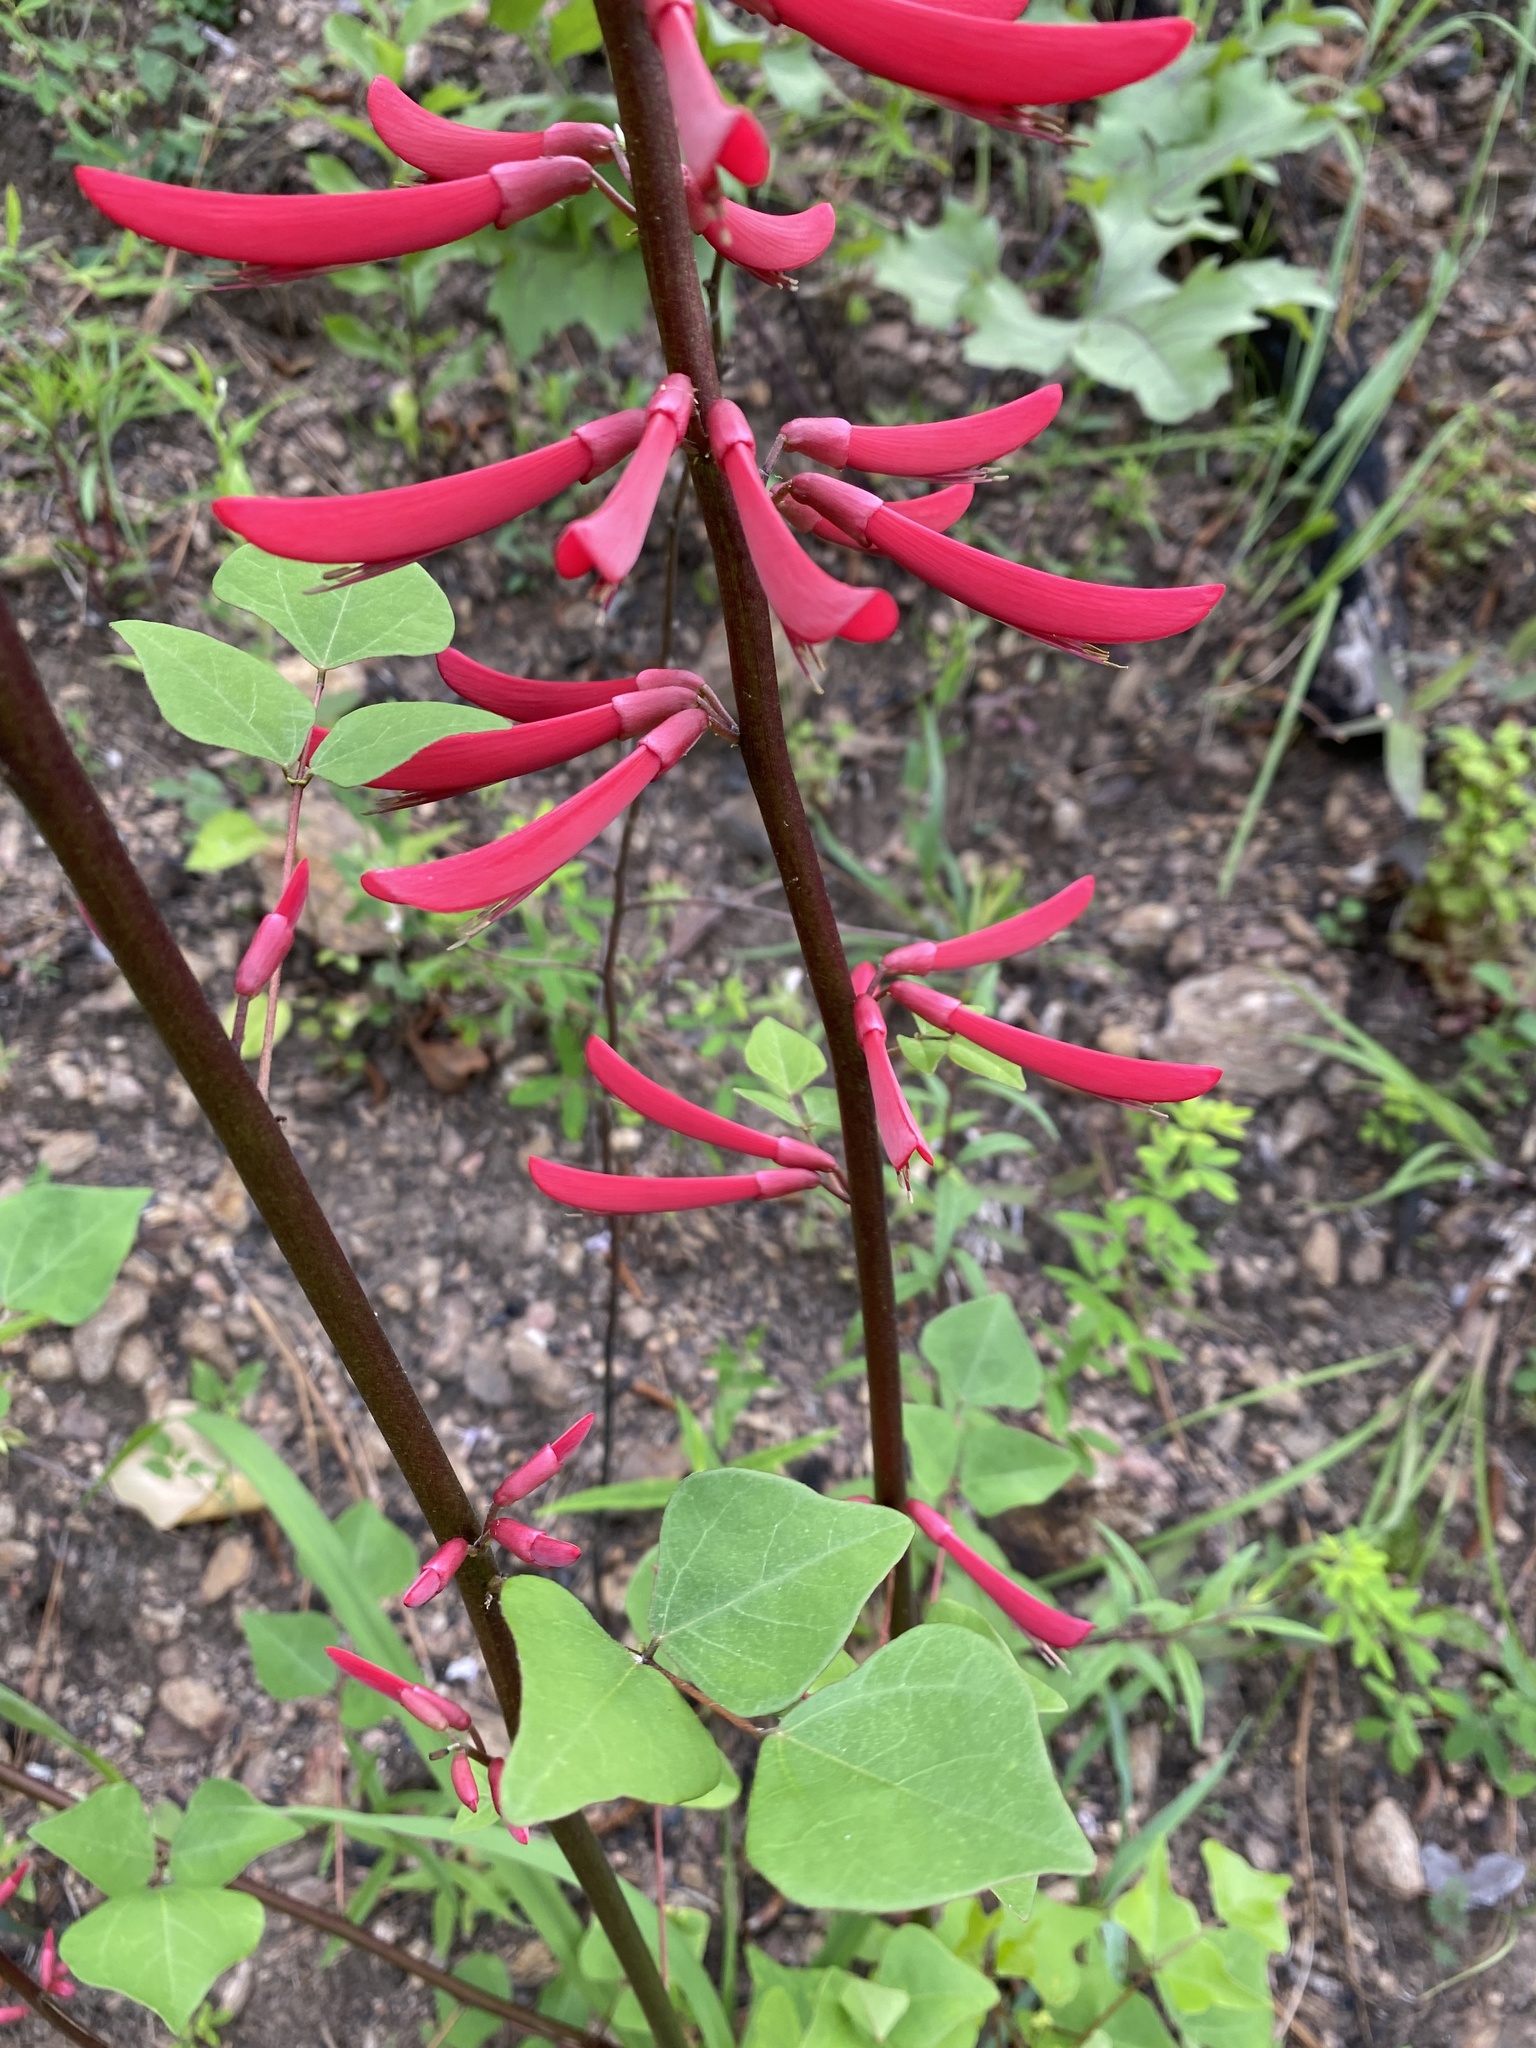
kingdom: Plantae
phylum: Tracheophyta
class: Magnoliopsida
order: Fabales
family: Fabaceae
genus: Erythrina
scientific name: Erythrina herbacea
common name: Coral-bean
